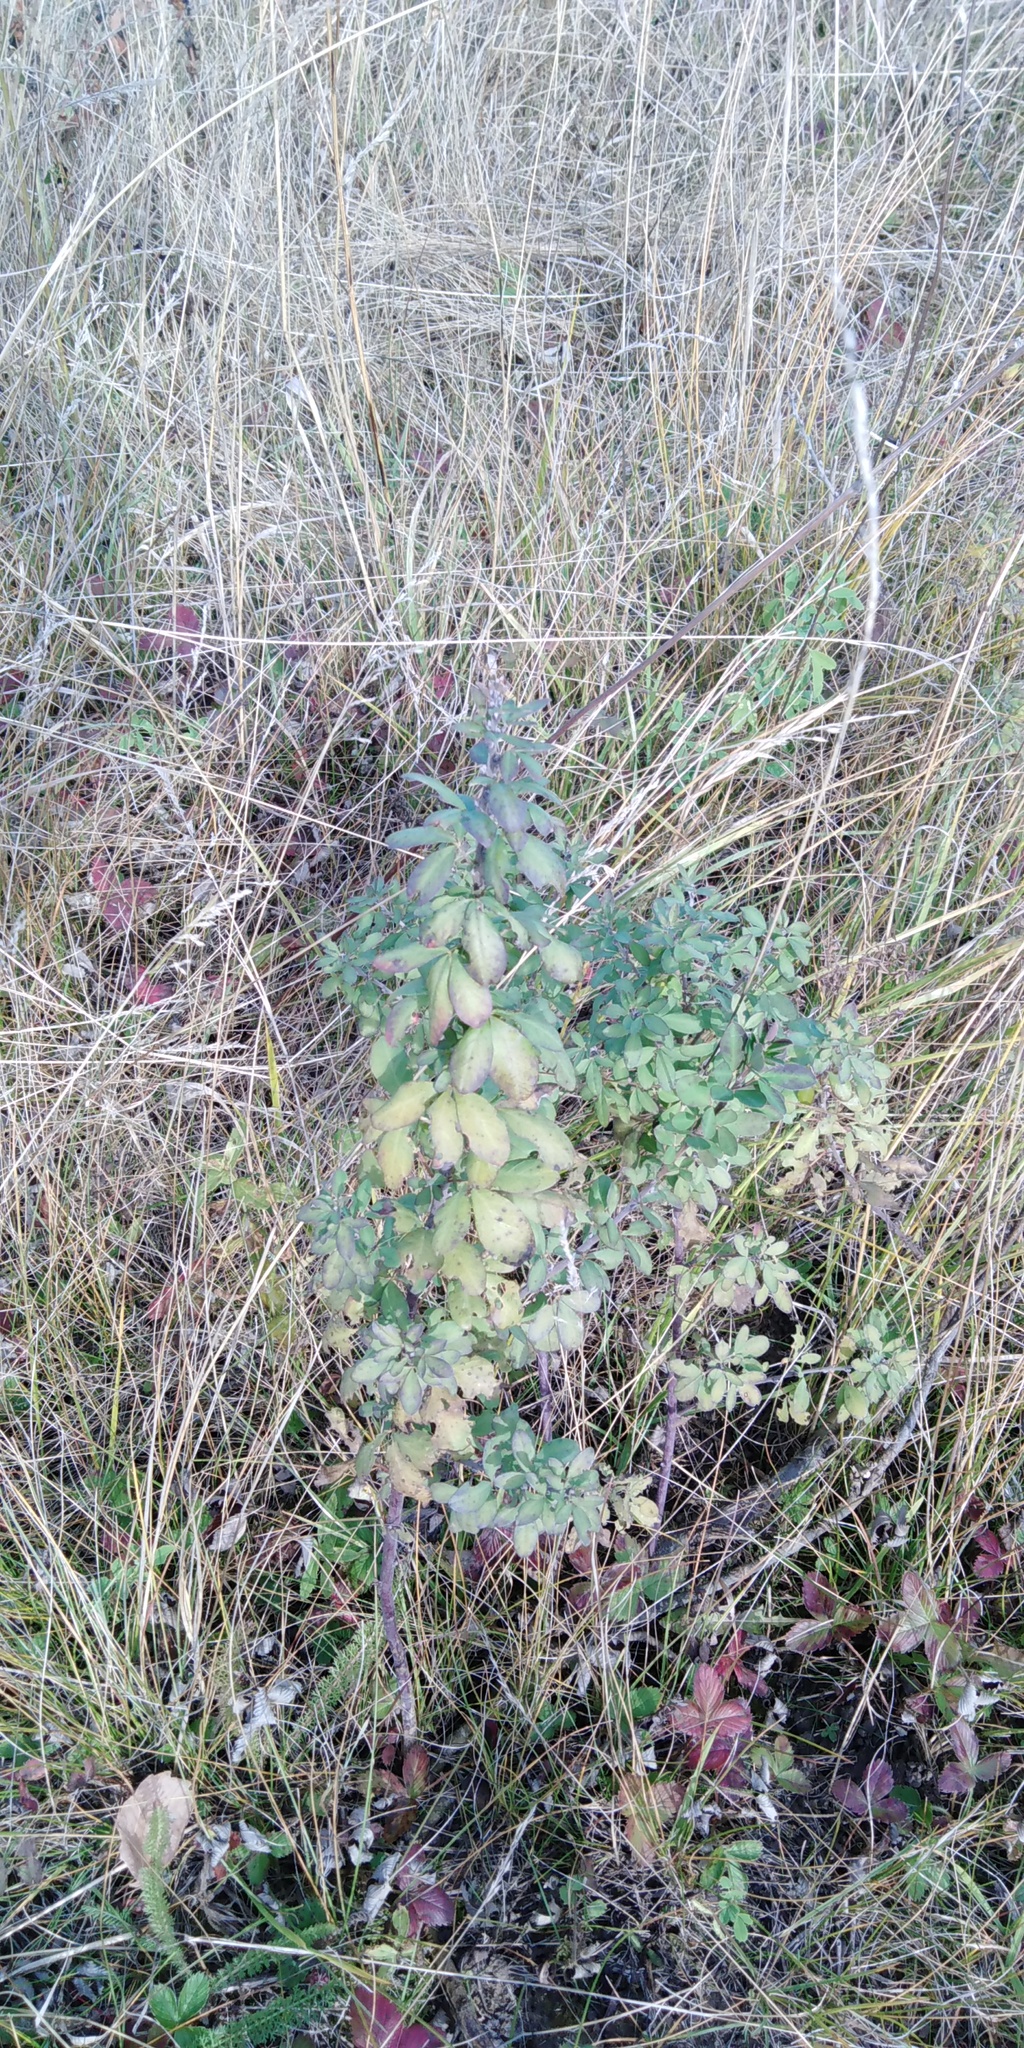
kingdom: Plantae
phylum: Tracheophyta
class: Magnoliopsida
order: Fabales
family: Fabaceae
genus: Chamaecytisus
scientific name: Chamaecytisus ruthenicus
